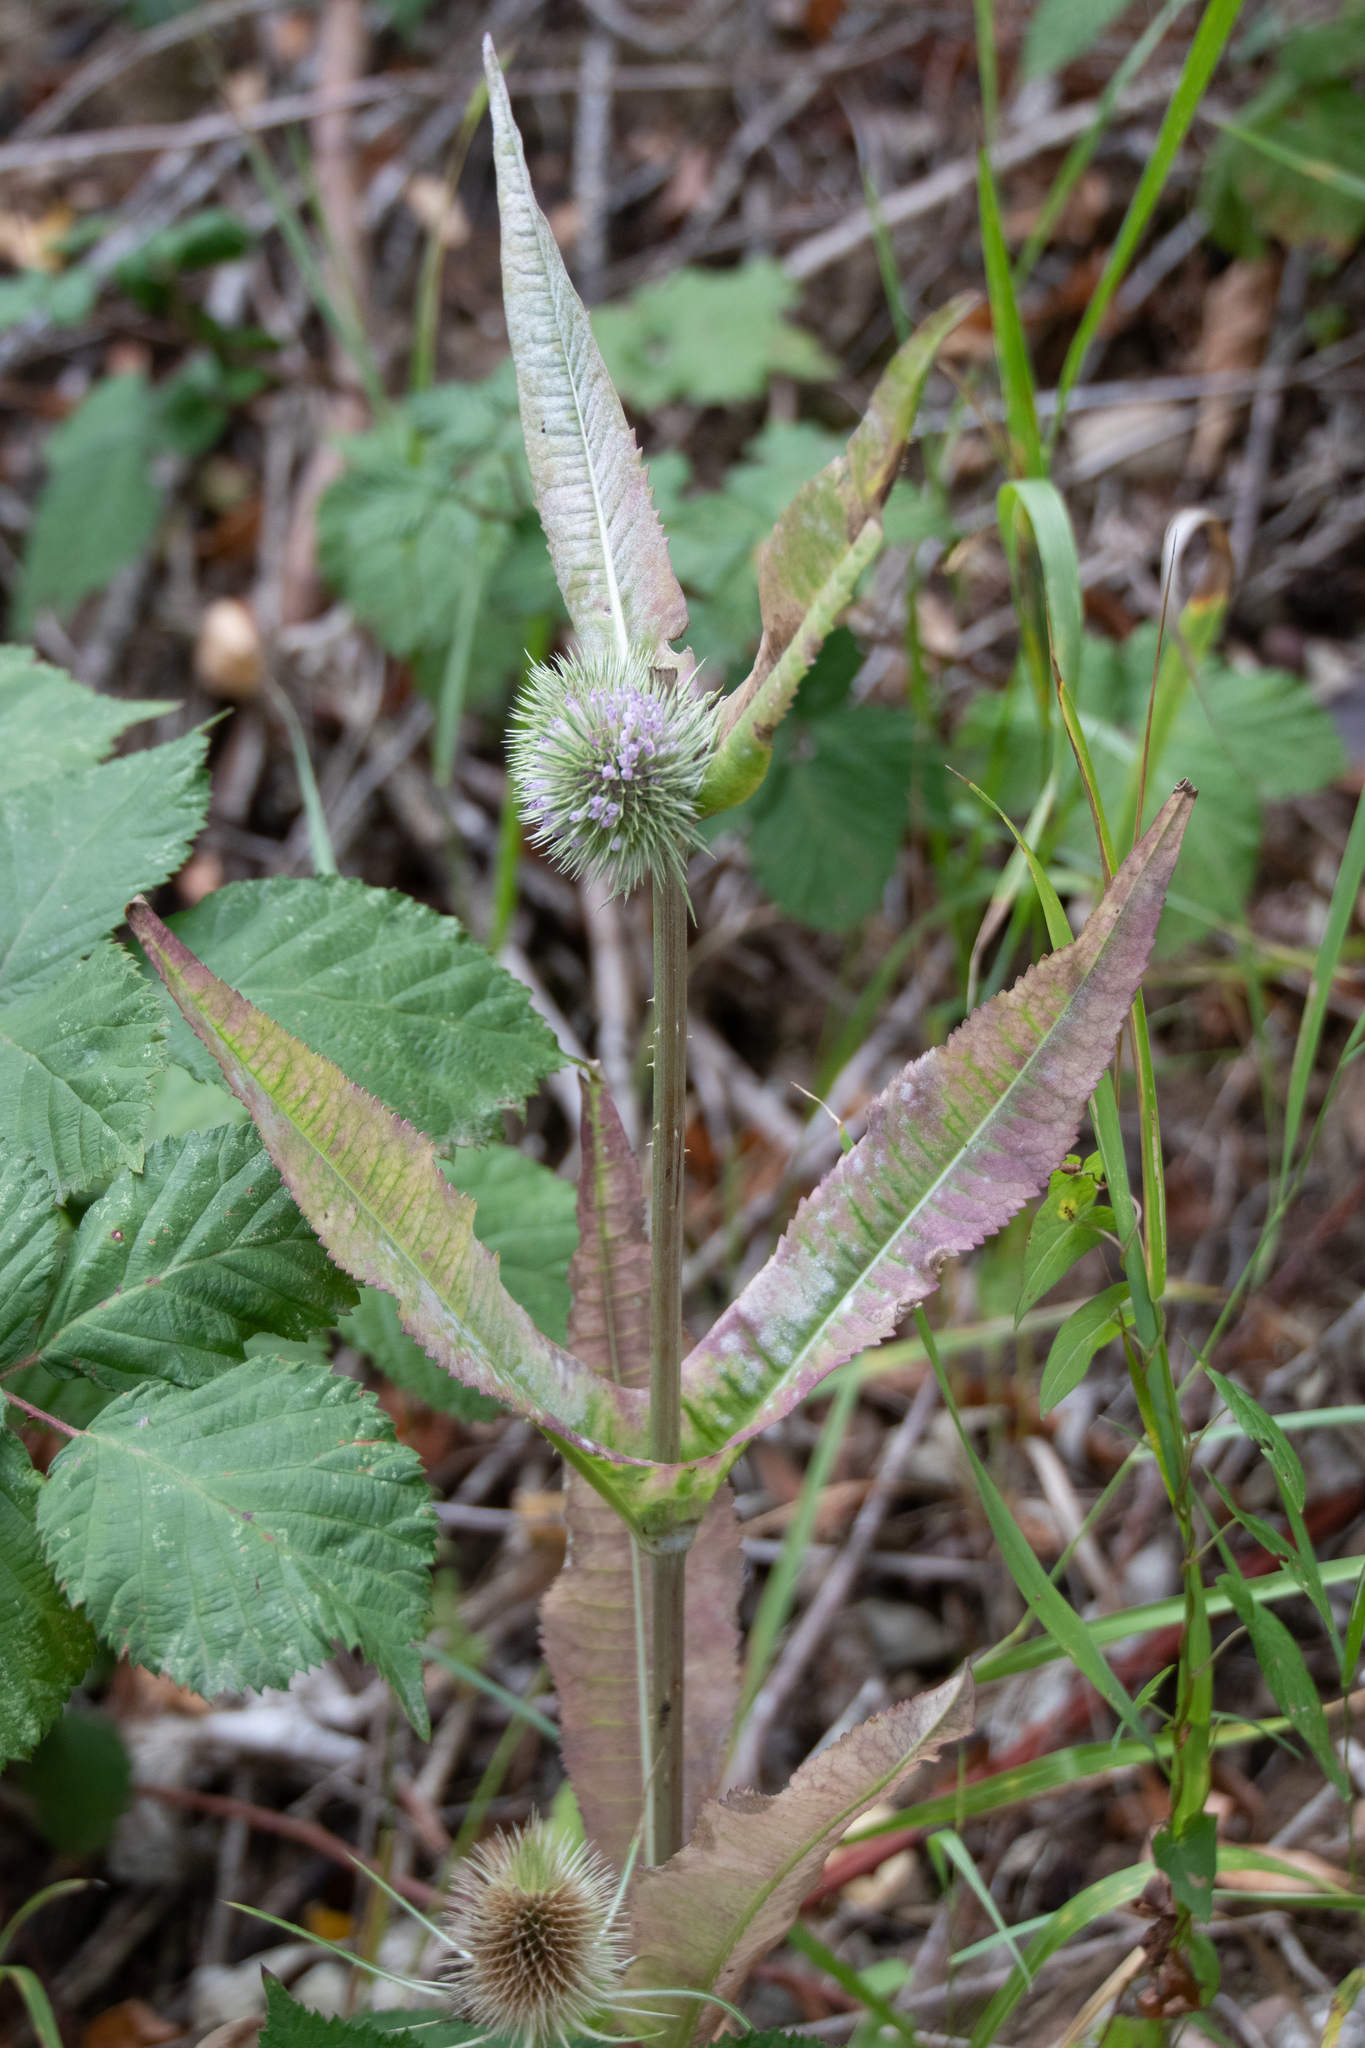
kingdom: Plantae
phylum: Tracheophyta
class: Magnoliopsida
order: Dipsacales
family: Caprifoliaceae
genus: Dipsacus
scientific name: Dipsacus fullonum
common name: Teasel
